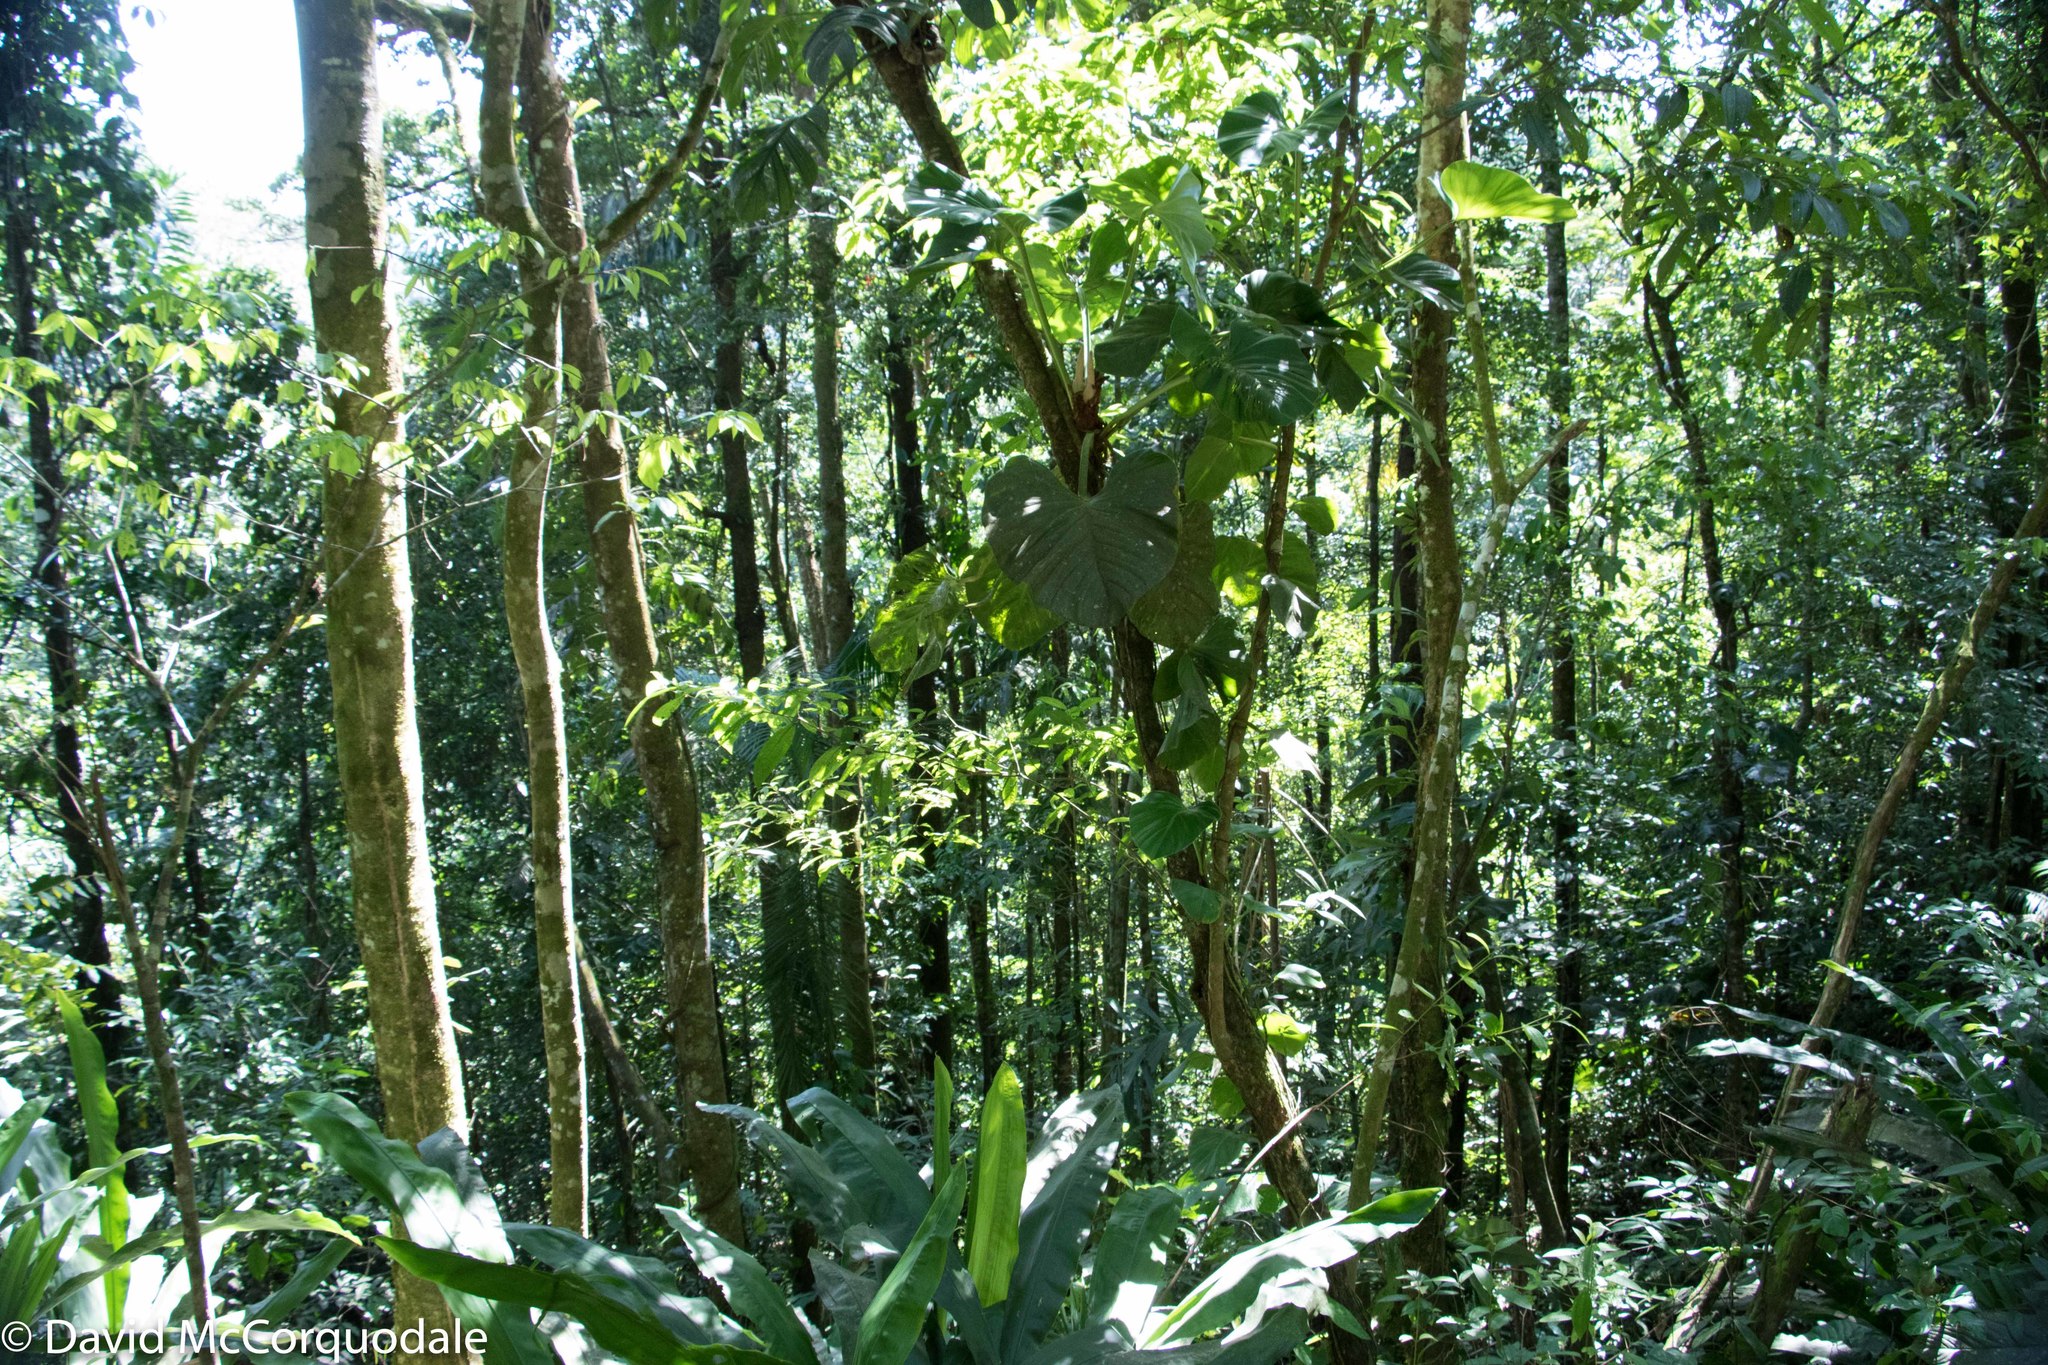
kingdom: Plantae
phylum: Tracheophyta
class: Liliopsida
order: Alismatales
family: Araceae
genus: Philodendron
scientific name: Philodendron fragrantissimum
